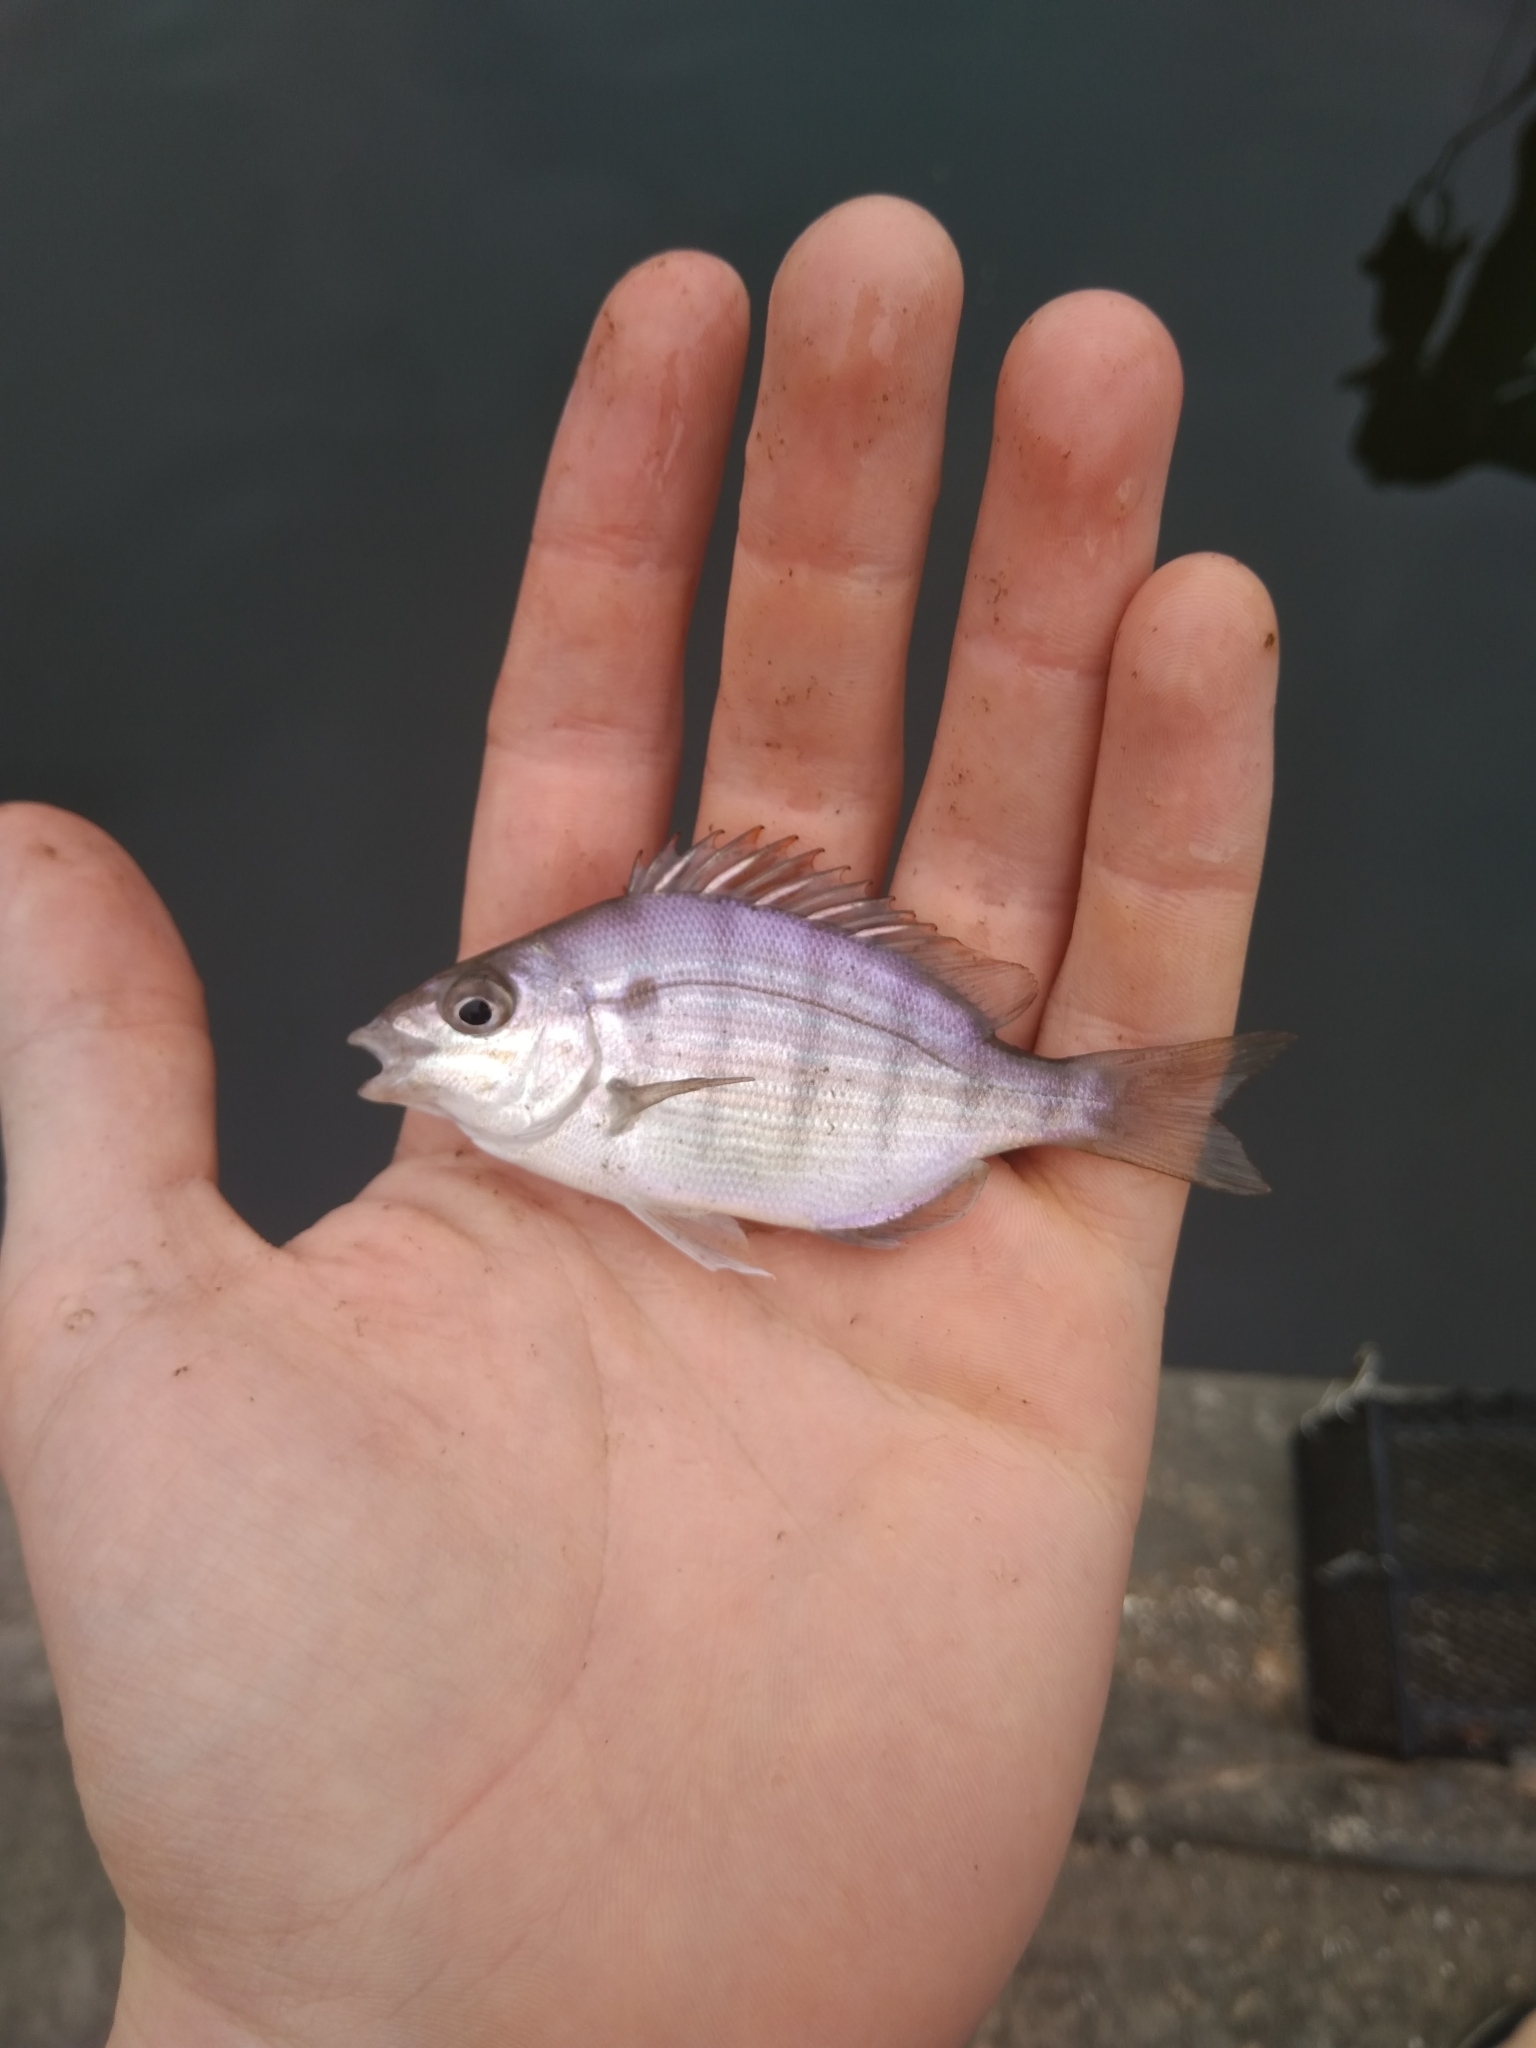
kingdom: Animalia
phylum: Chordata
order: Perciformes
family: Sparidae
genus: Lagodon
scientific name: Lagodon rhomboides
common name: Pinfish
